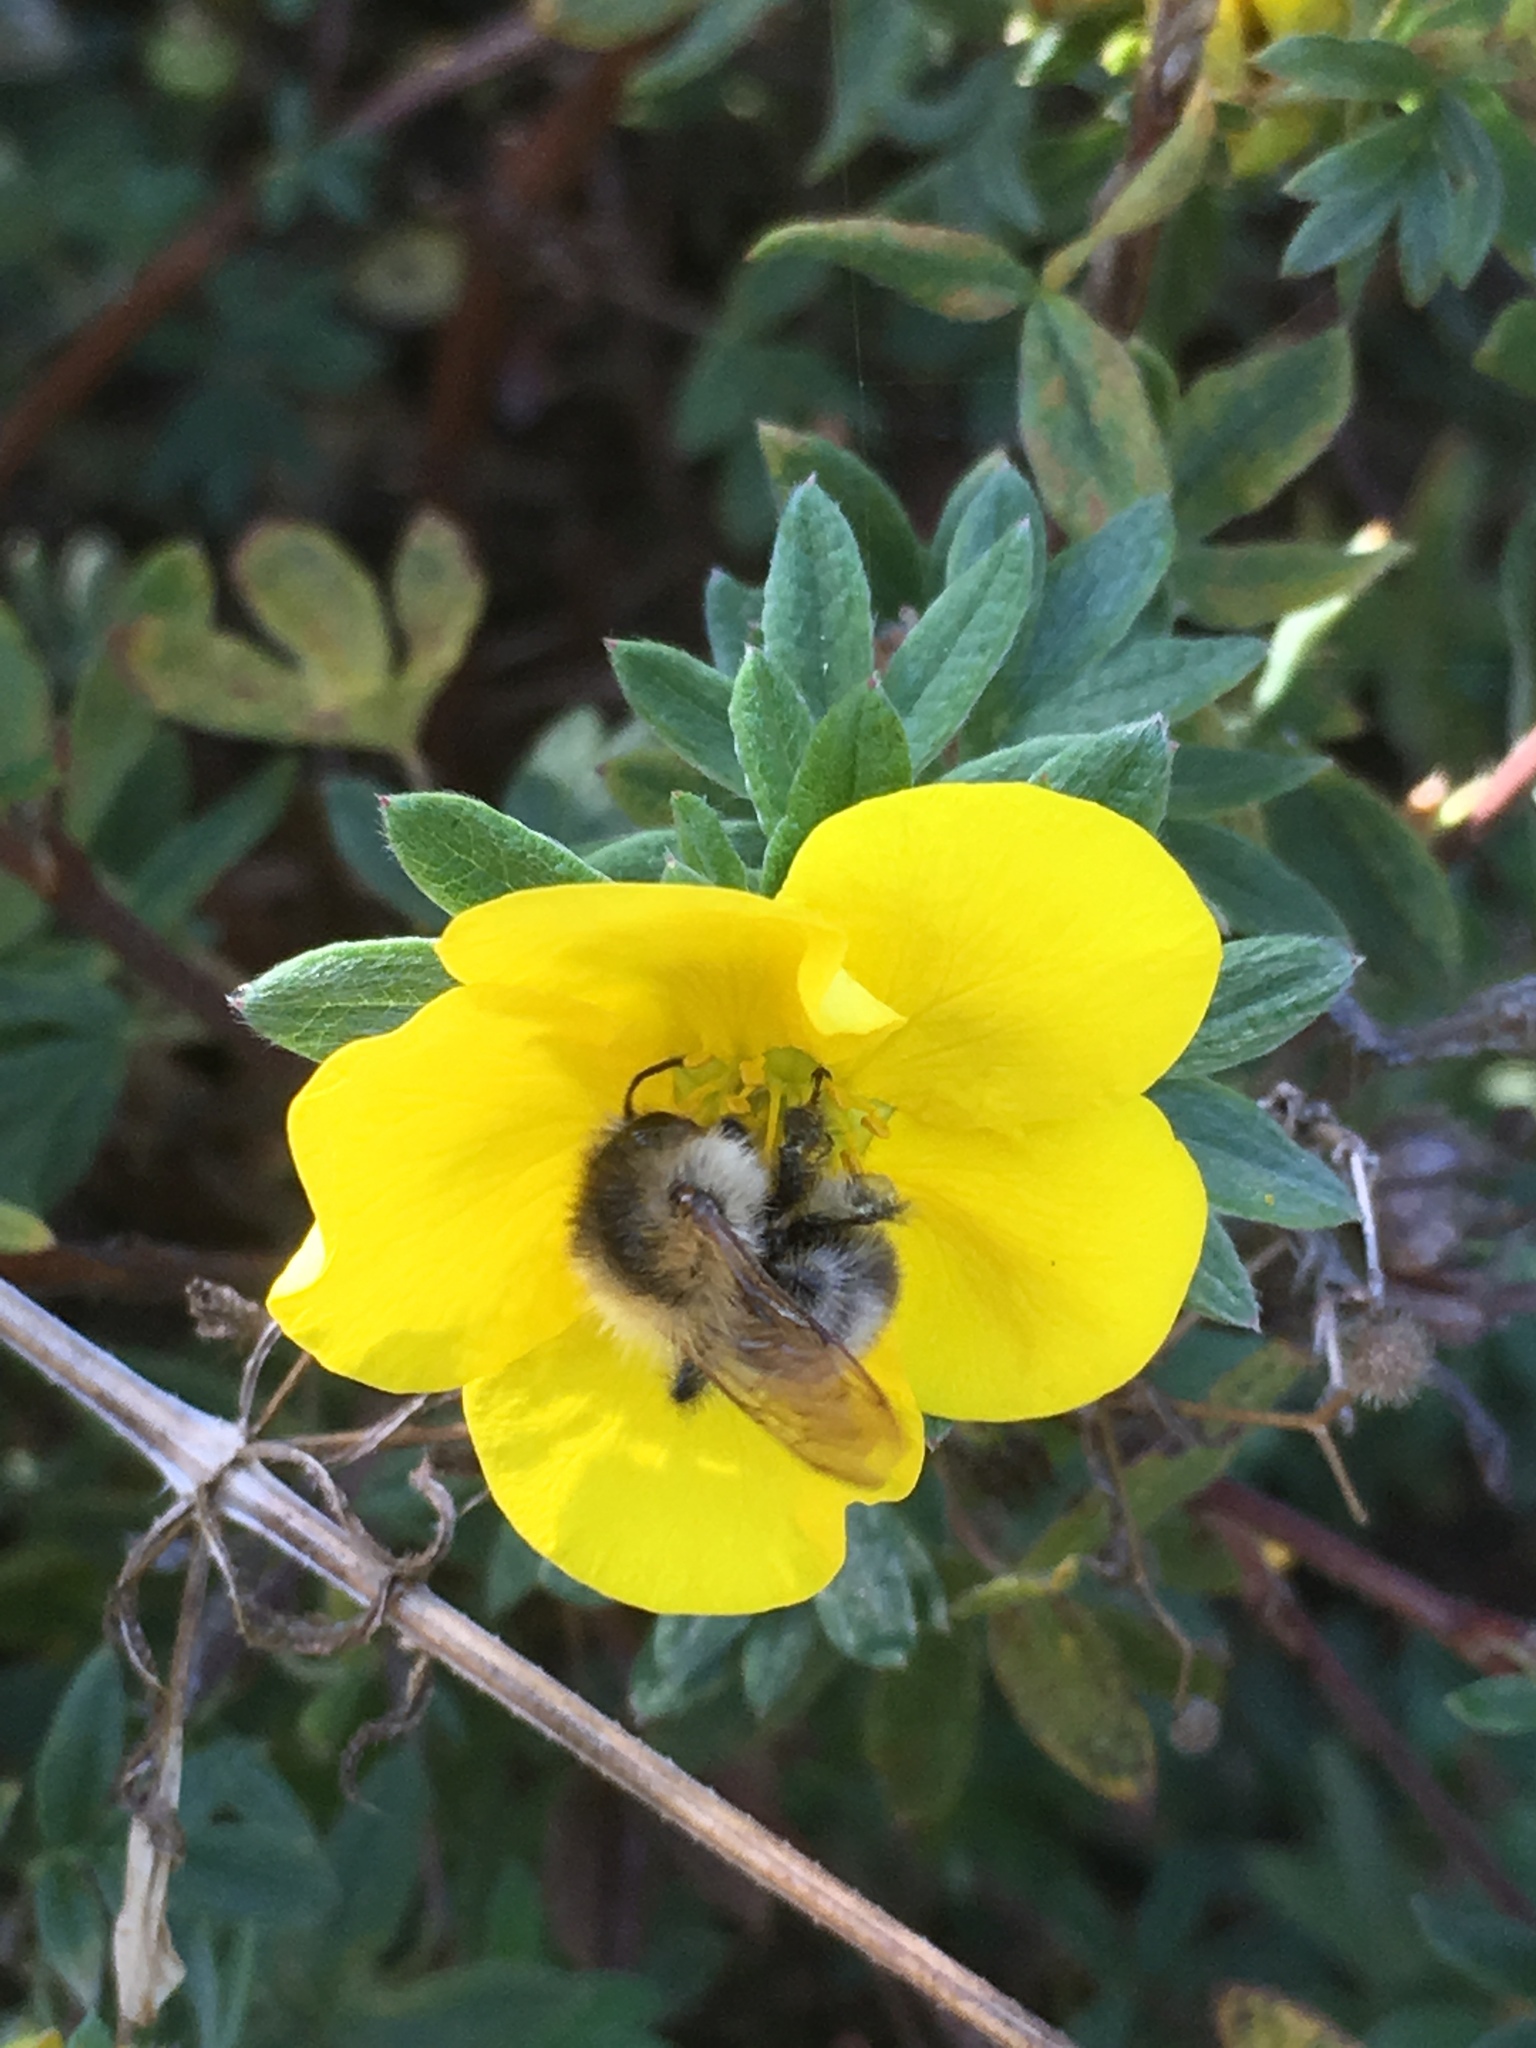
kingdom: Animalia
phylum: Arthropoda
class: Insecta
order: Hymenoptera
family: Apidae
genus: Bombus
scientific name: Bombus pascuorum
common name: Common carder bee
